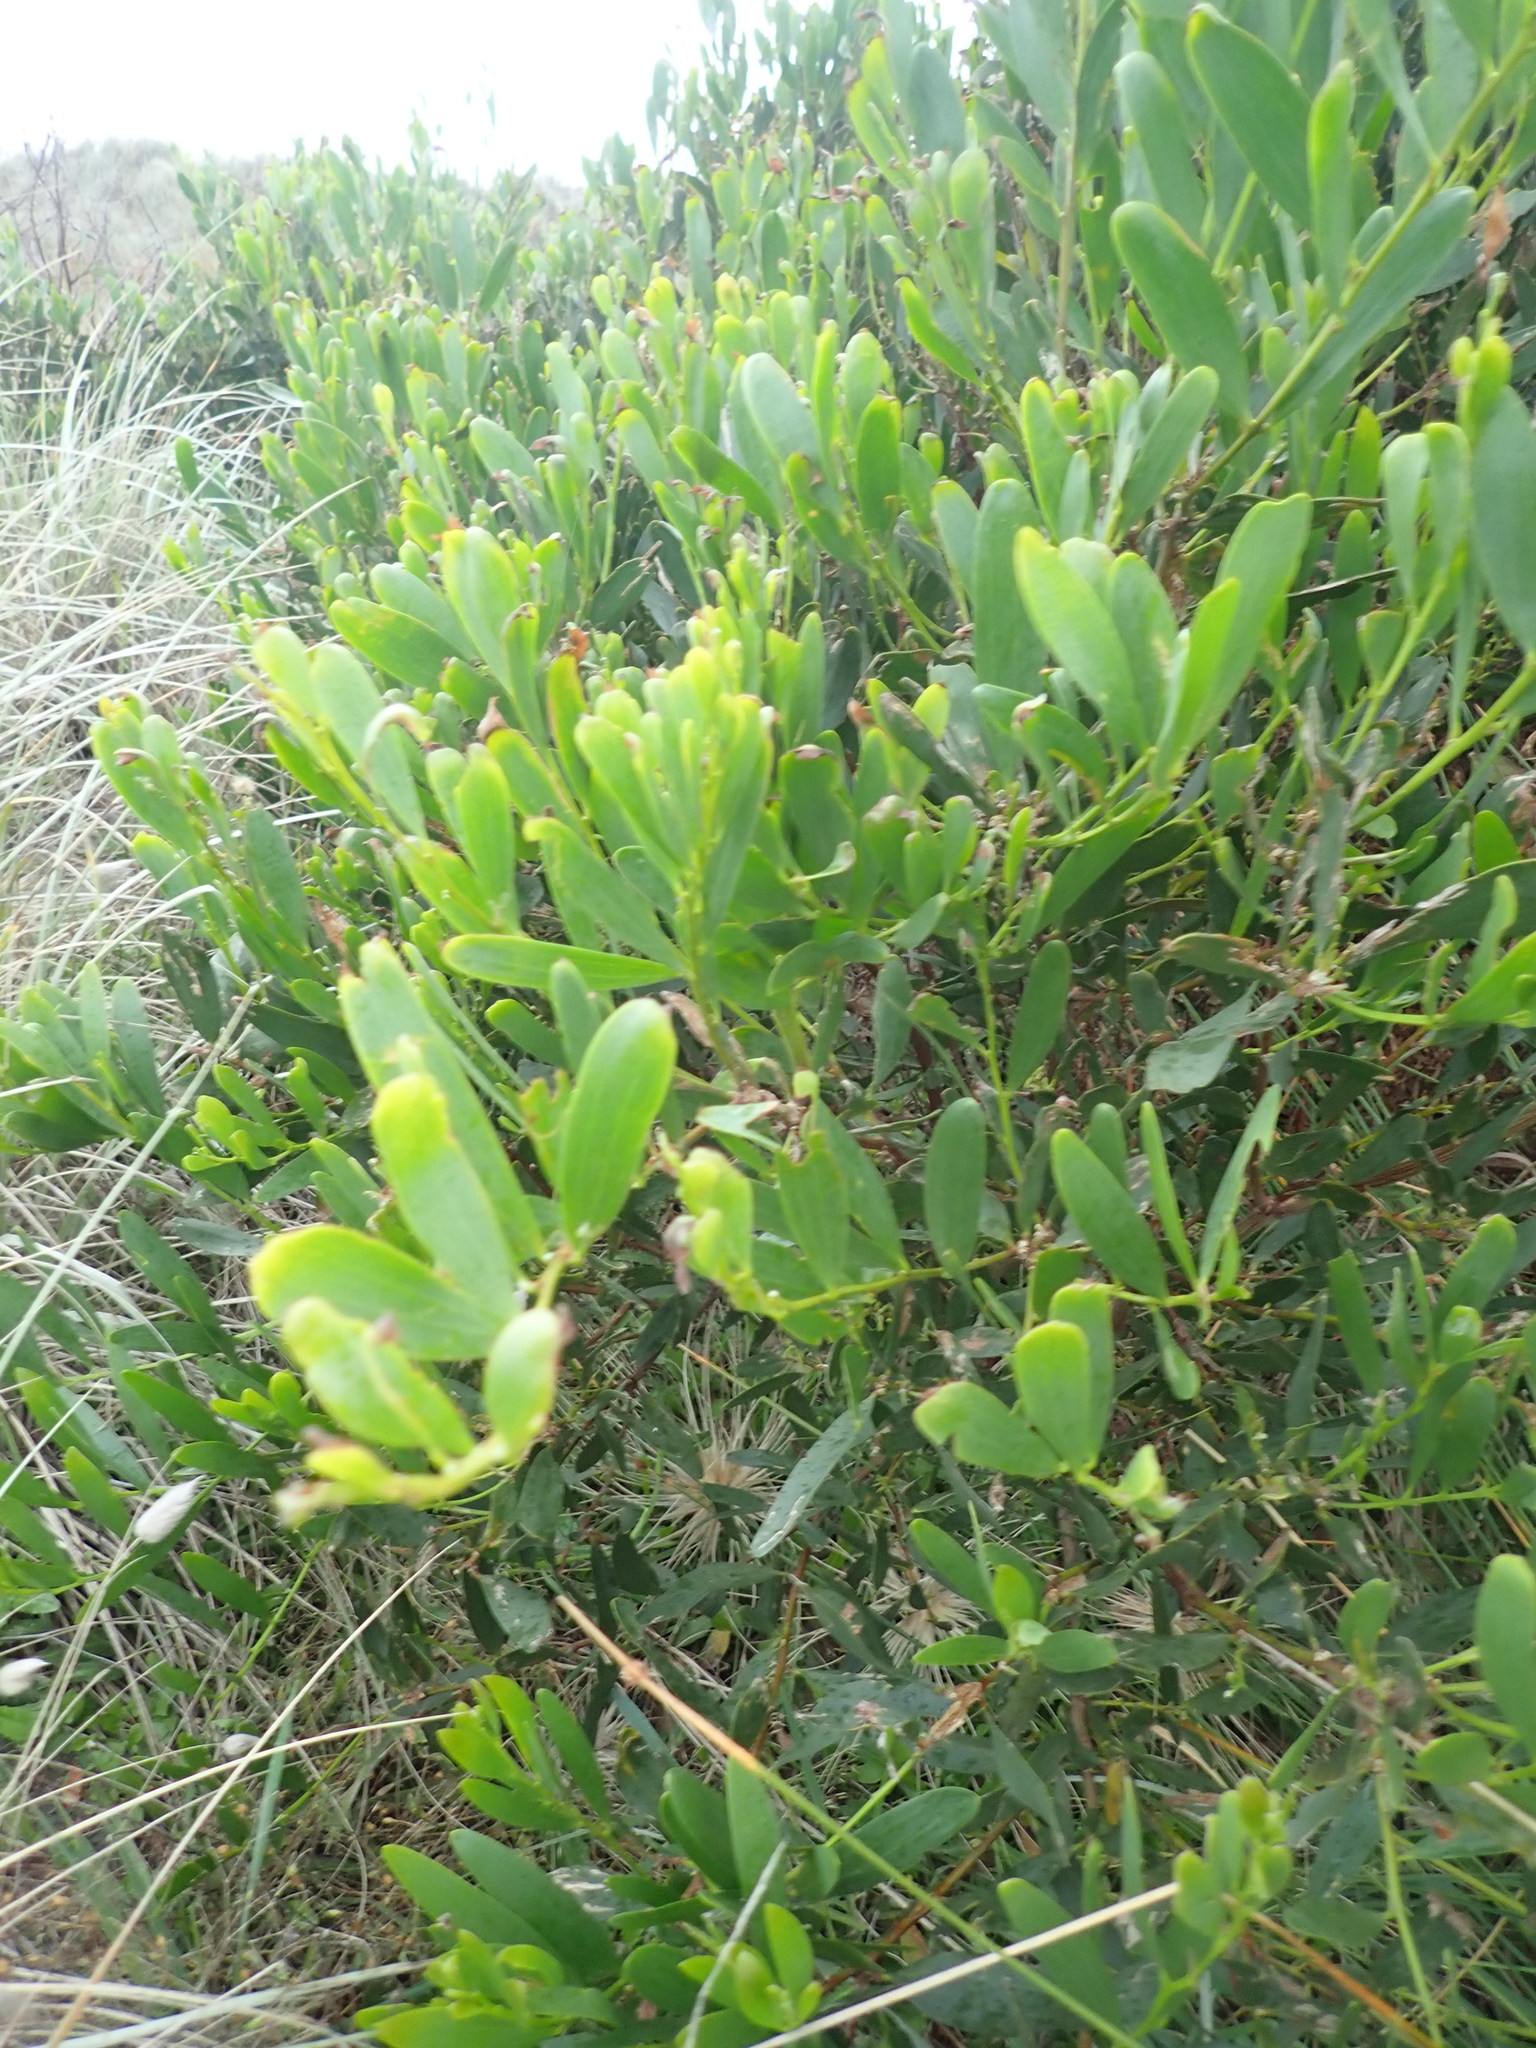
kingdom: Plantae
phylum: Tracheophyta
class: Magnoliopsida
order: Fabales
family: Fabaceae
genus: Acacia
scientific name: Acacia longifolia
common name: Sydney golden wattle
